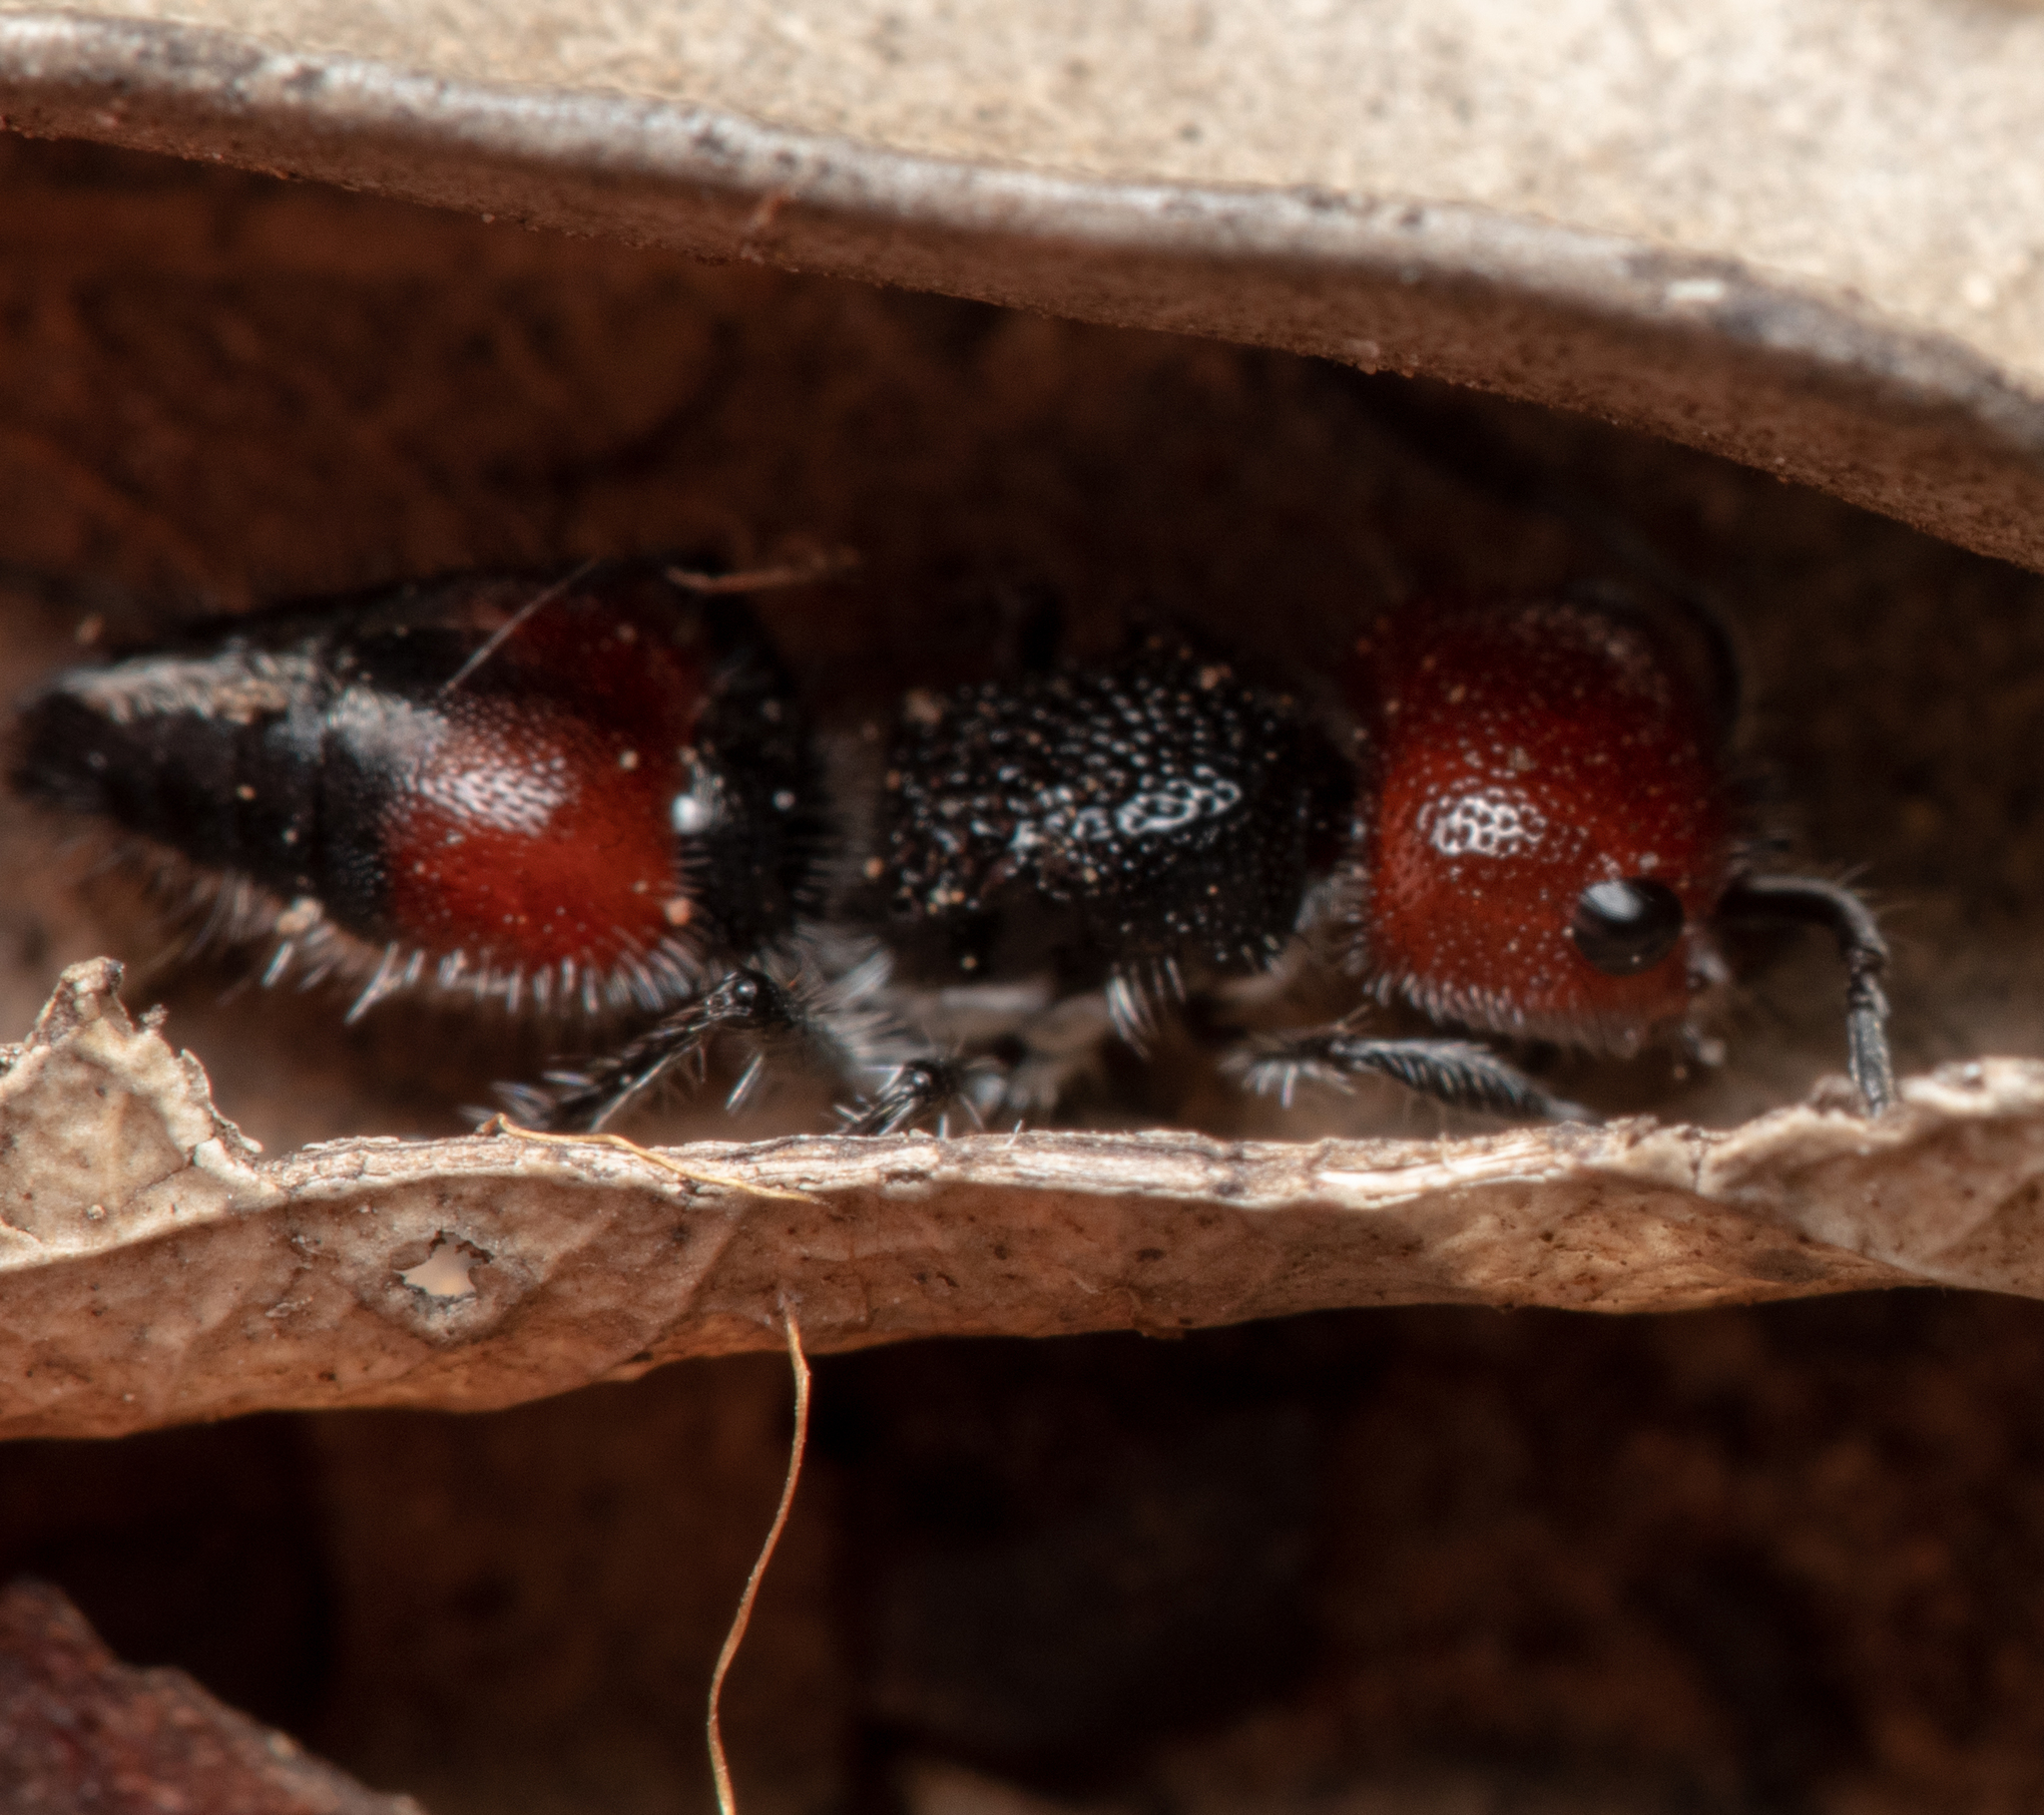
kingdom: Animalia
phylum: Arthropoda
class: Insecta
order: Hymenoptera
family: Mutillidae
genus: Ephutomorpha
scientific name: Ephutomorpha
